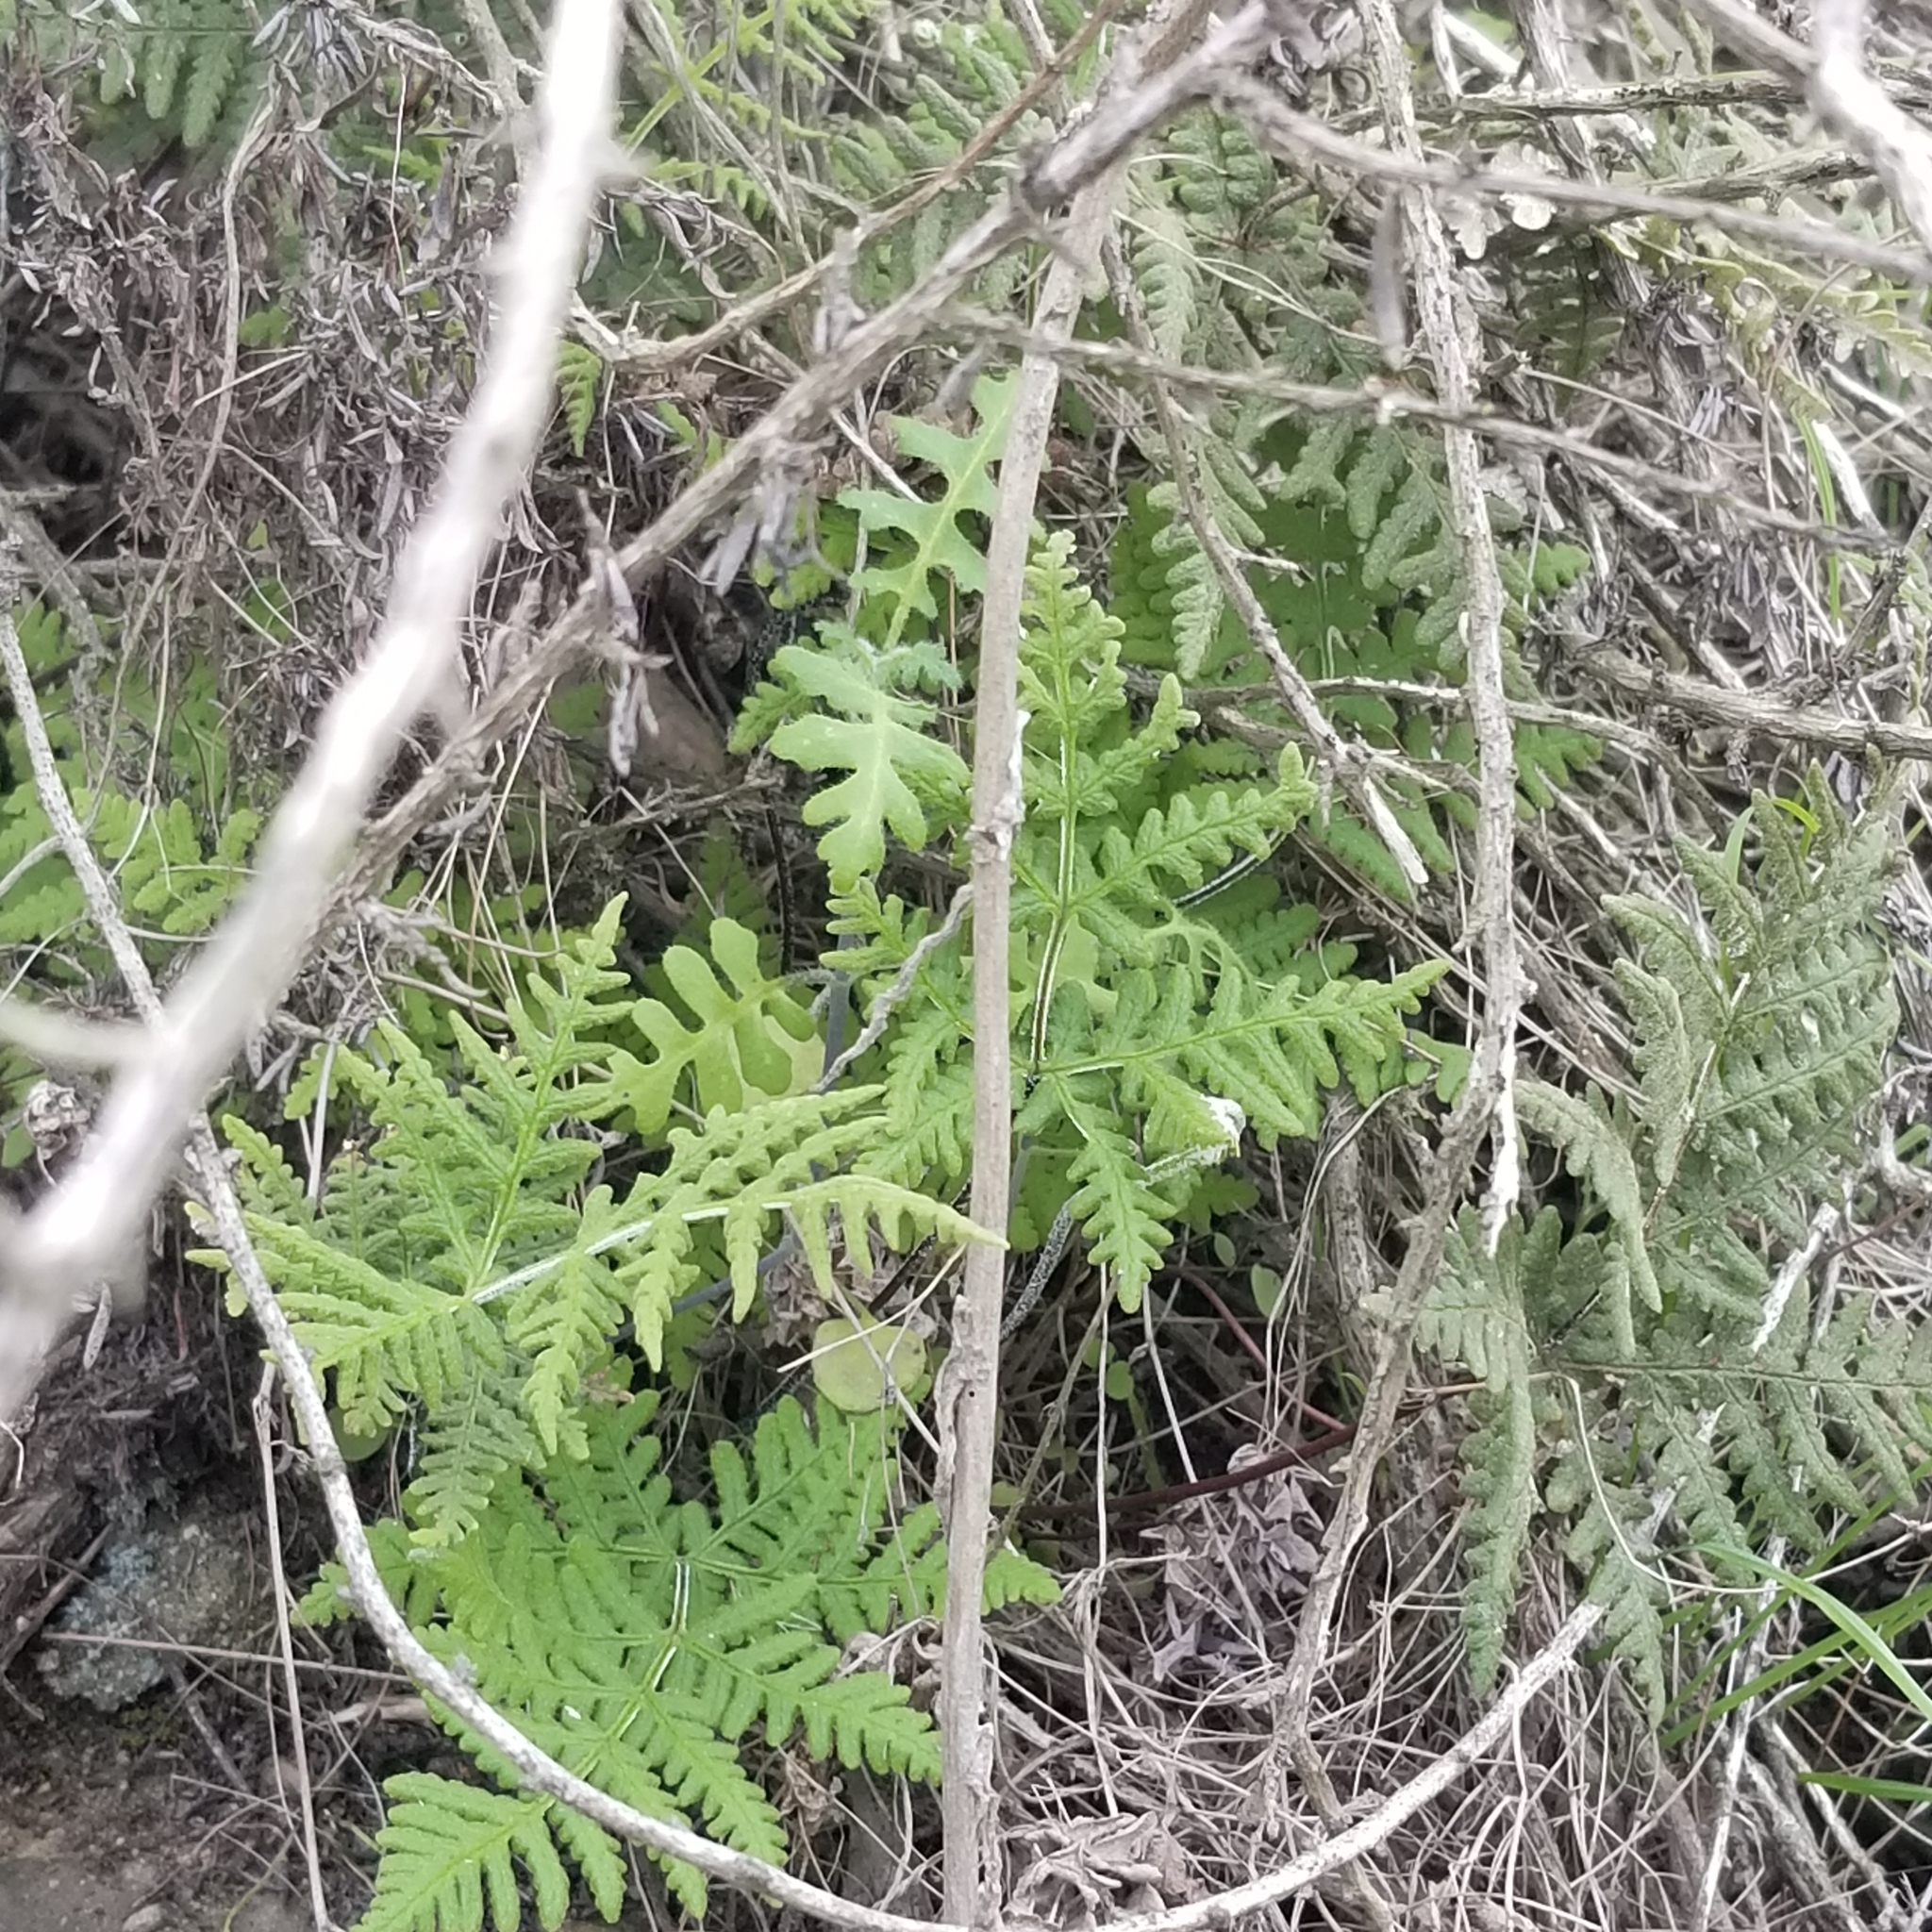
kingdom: Plantae
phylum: Tracheophyta
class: Polypodiopsida
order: Polypodiales
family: Pteridaceae
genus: Pentagramma
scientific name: Pentagramma glanduloviscida
